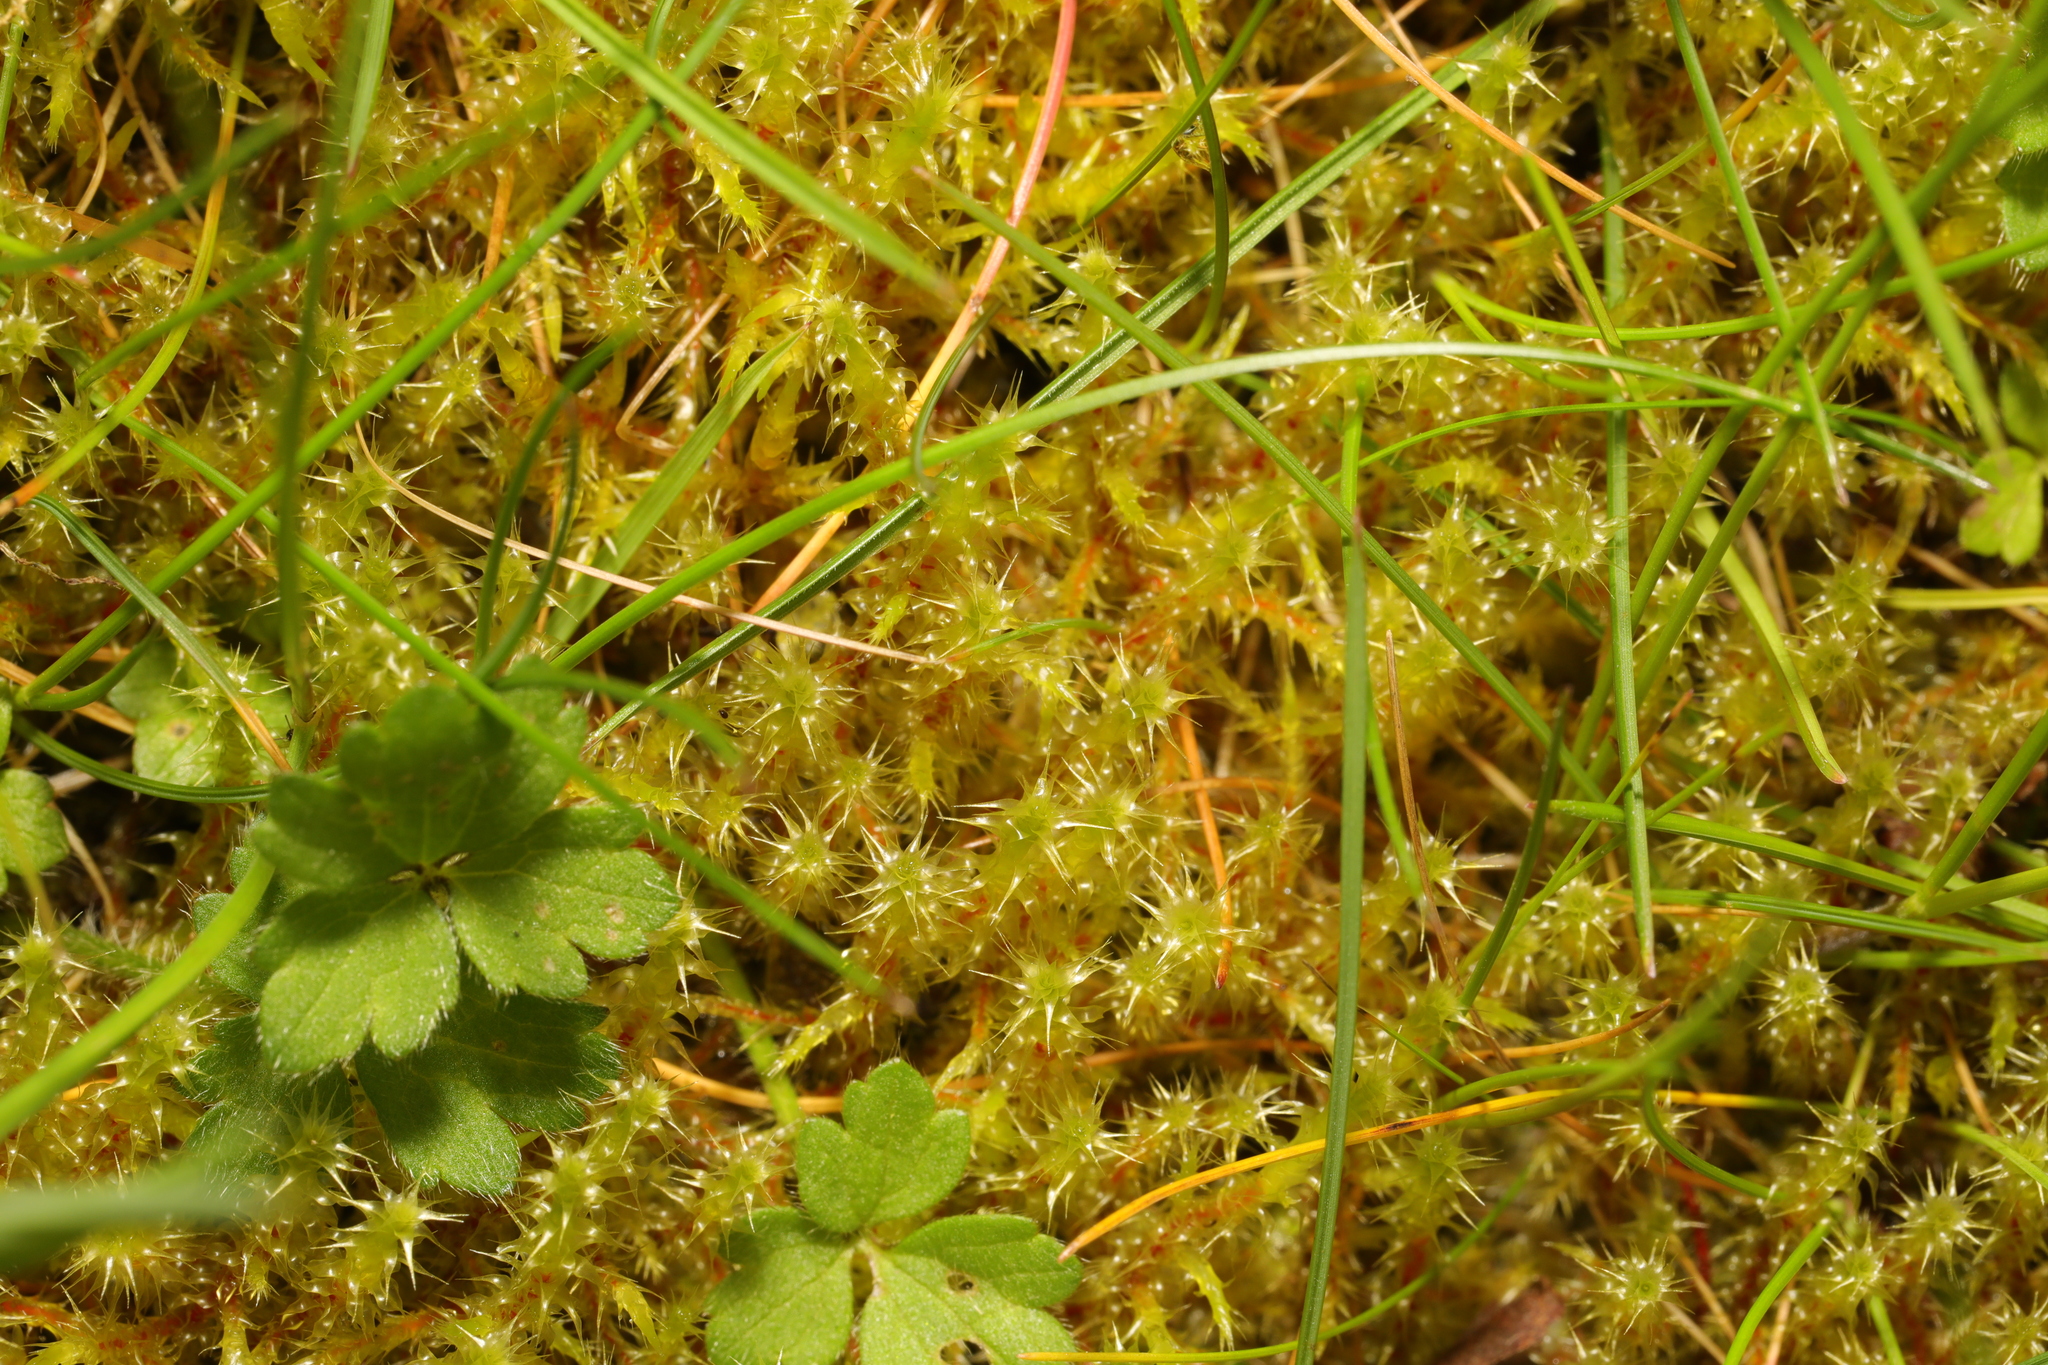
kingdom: Plantae
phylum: Bryophyta
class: Bryopsida
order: Hypnales
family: Hylocomiaceae
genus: Rhytidiadelphus
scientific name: Rhytidiadelphus squarrosus
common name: Springy turf-moss
